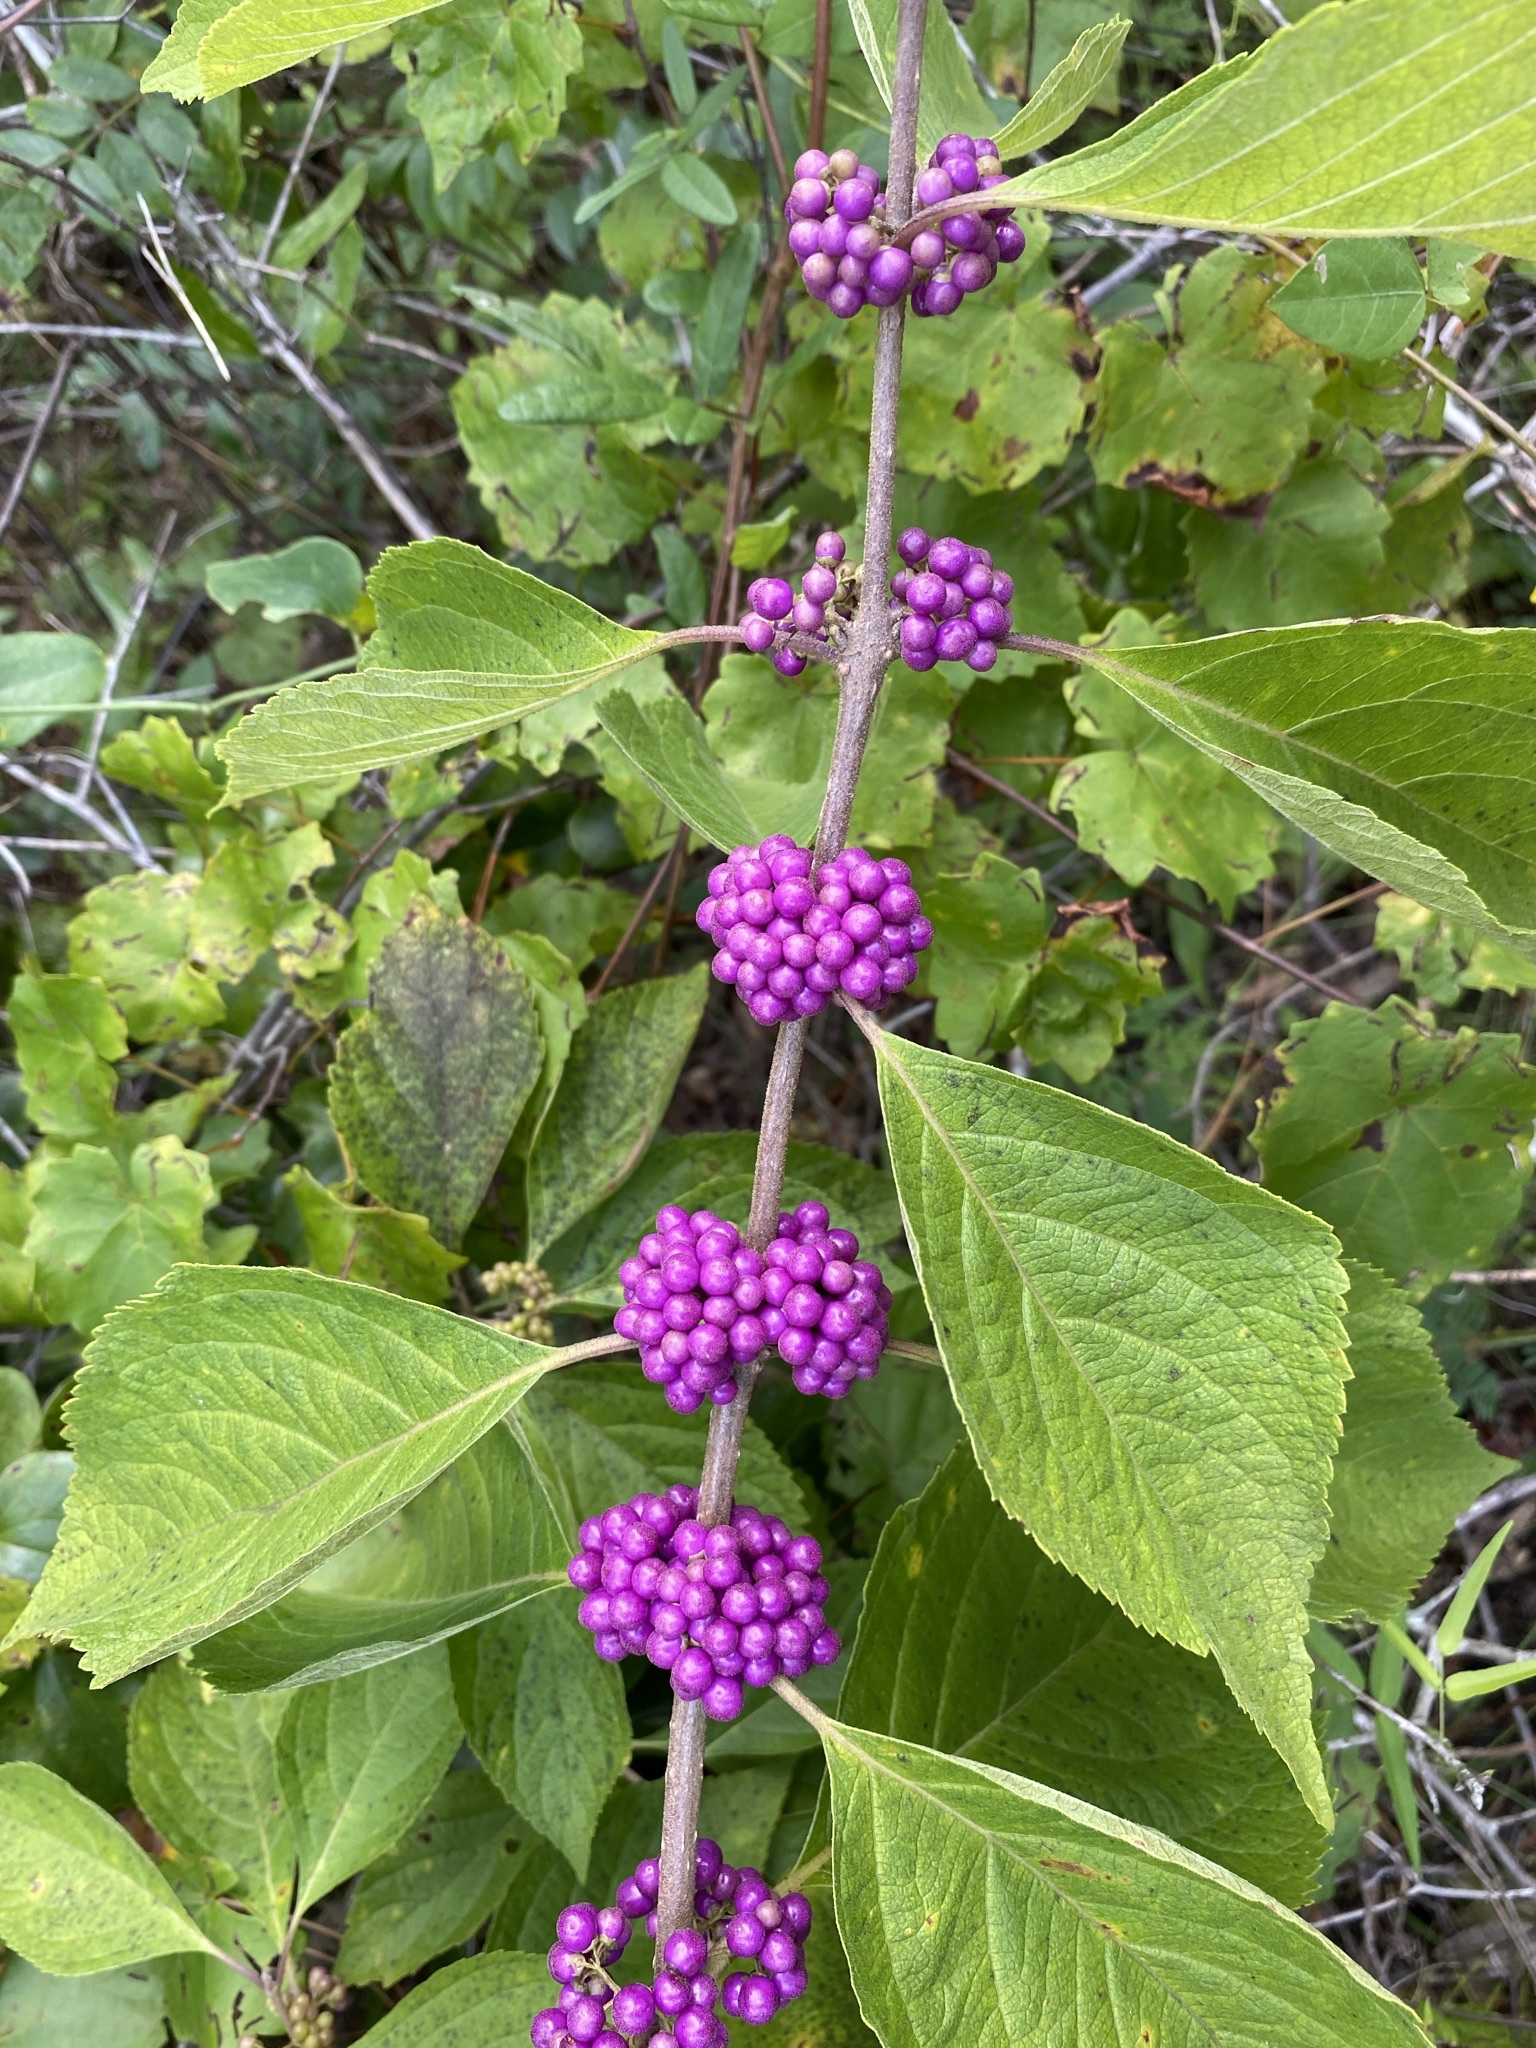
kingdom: Plantae
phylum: Tracheophyta
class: Magnoliopsida
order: Lamiales
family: Lamiaceae
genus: Callicarpa
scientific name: Callicarpa americana
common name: American beautyberry
